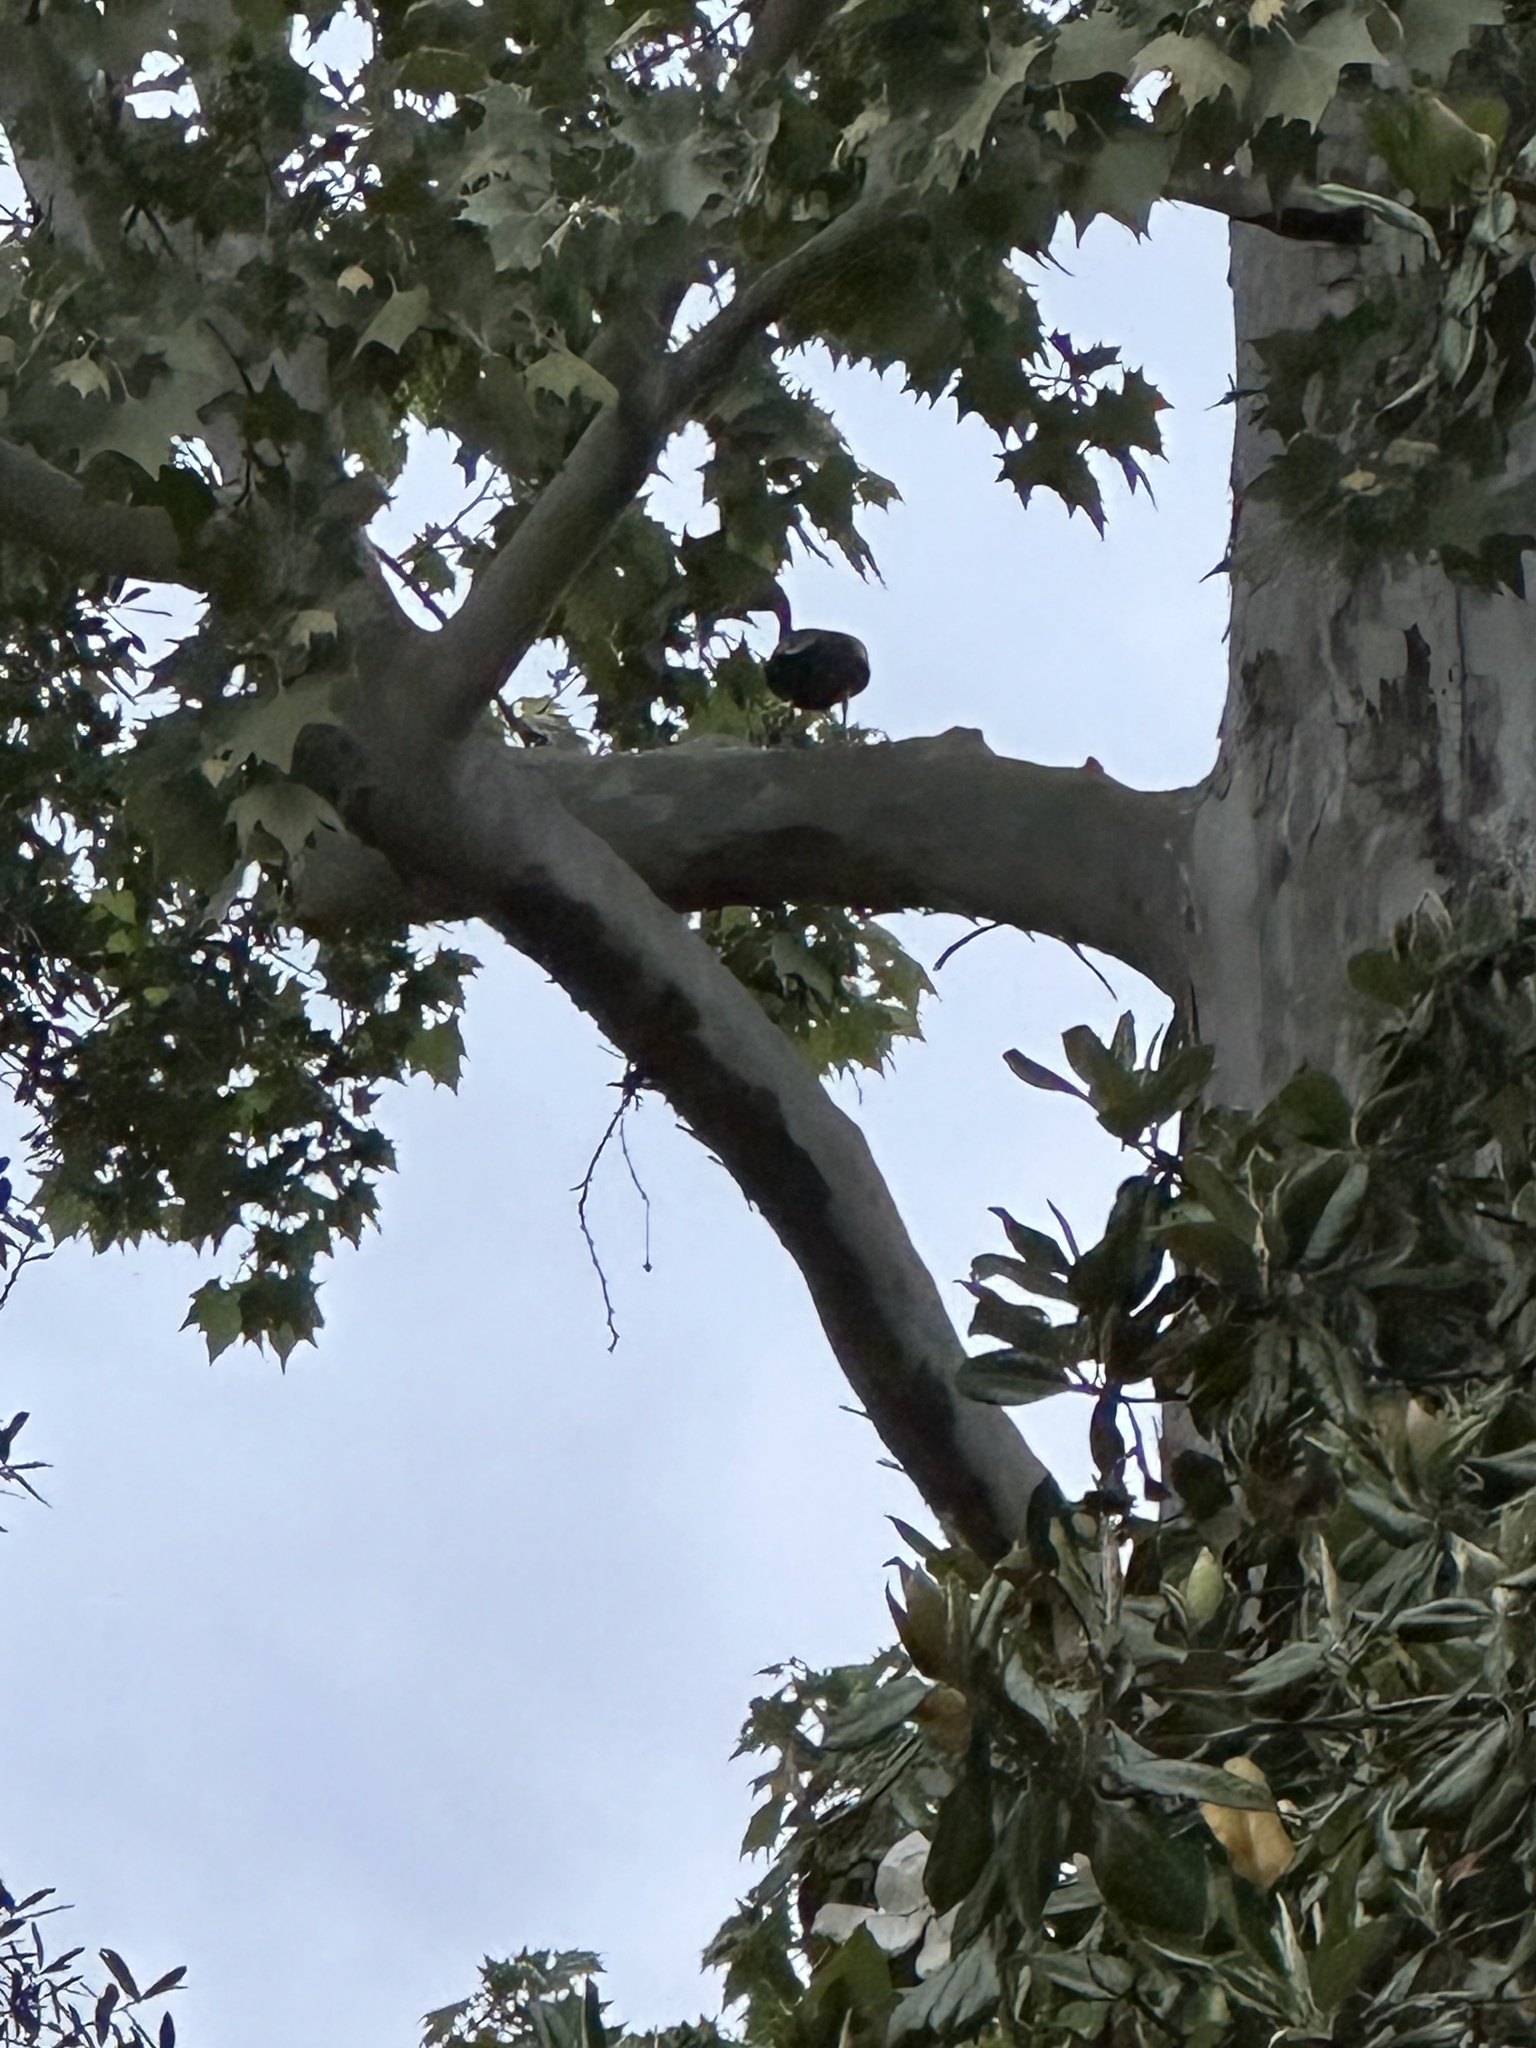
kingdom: Animalia
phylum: Chordata
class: Aves
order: Anseriformes
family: Anatidae
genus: Dendrocygna
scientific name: Dendrocygna autumnalis
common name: Black-bellied whistling duck
